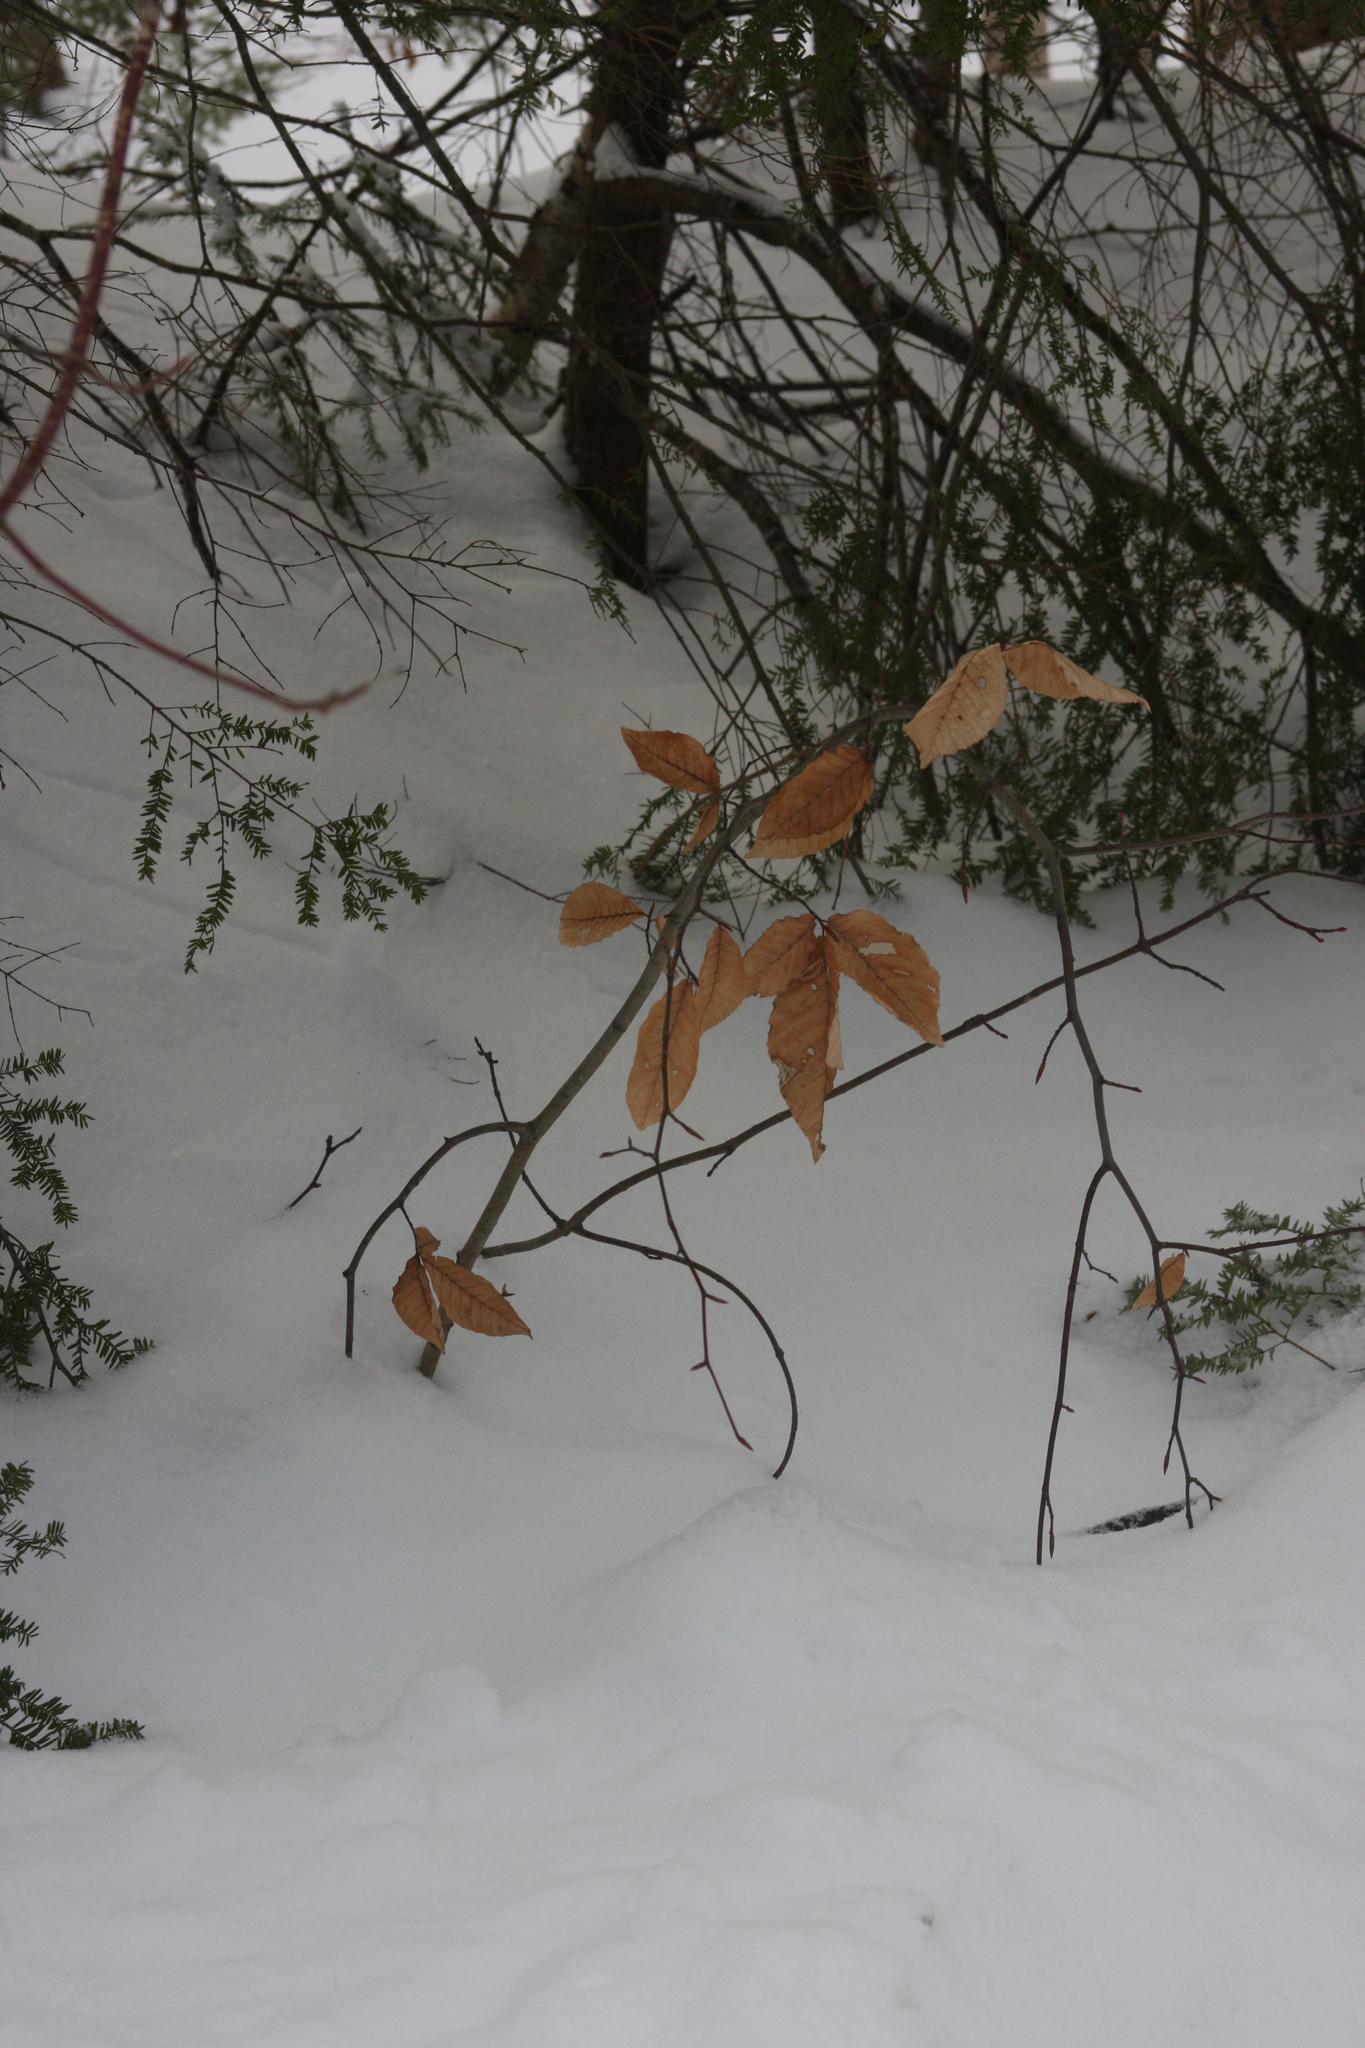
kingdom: Plantae
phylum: Tracheophyta
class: Magnoliopsida
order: Fagales
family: Fagaceae
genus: Fagus
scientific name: Fagus grandifolia
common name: American beech
